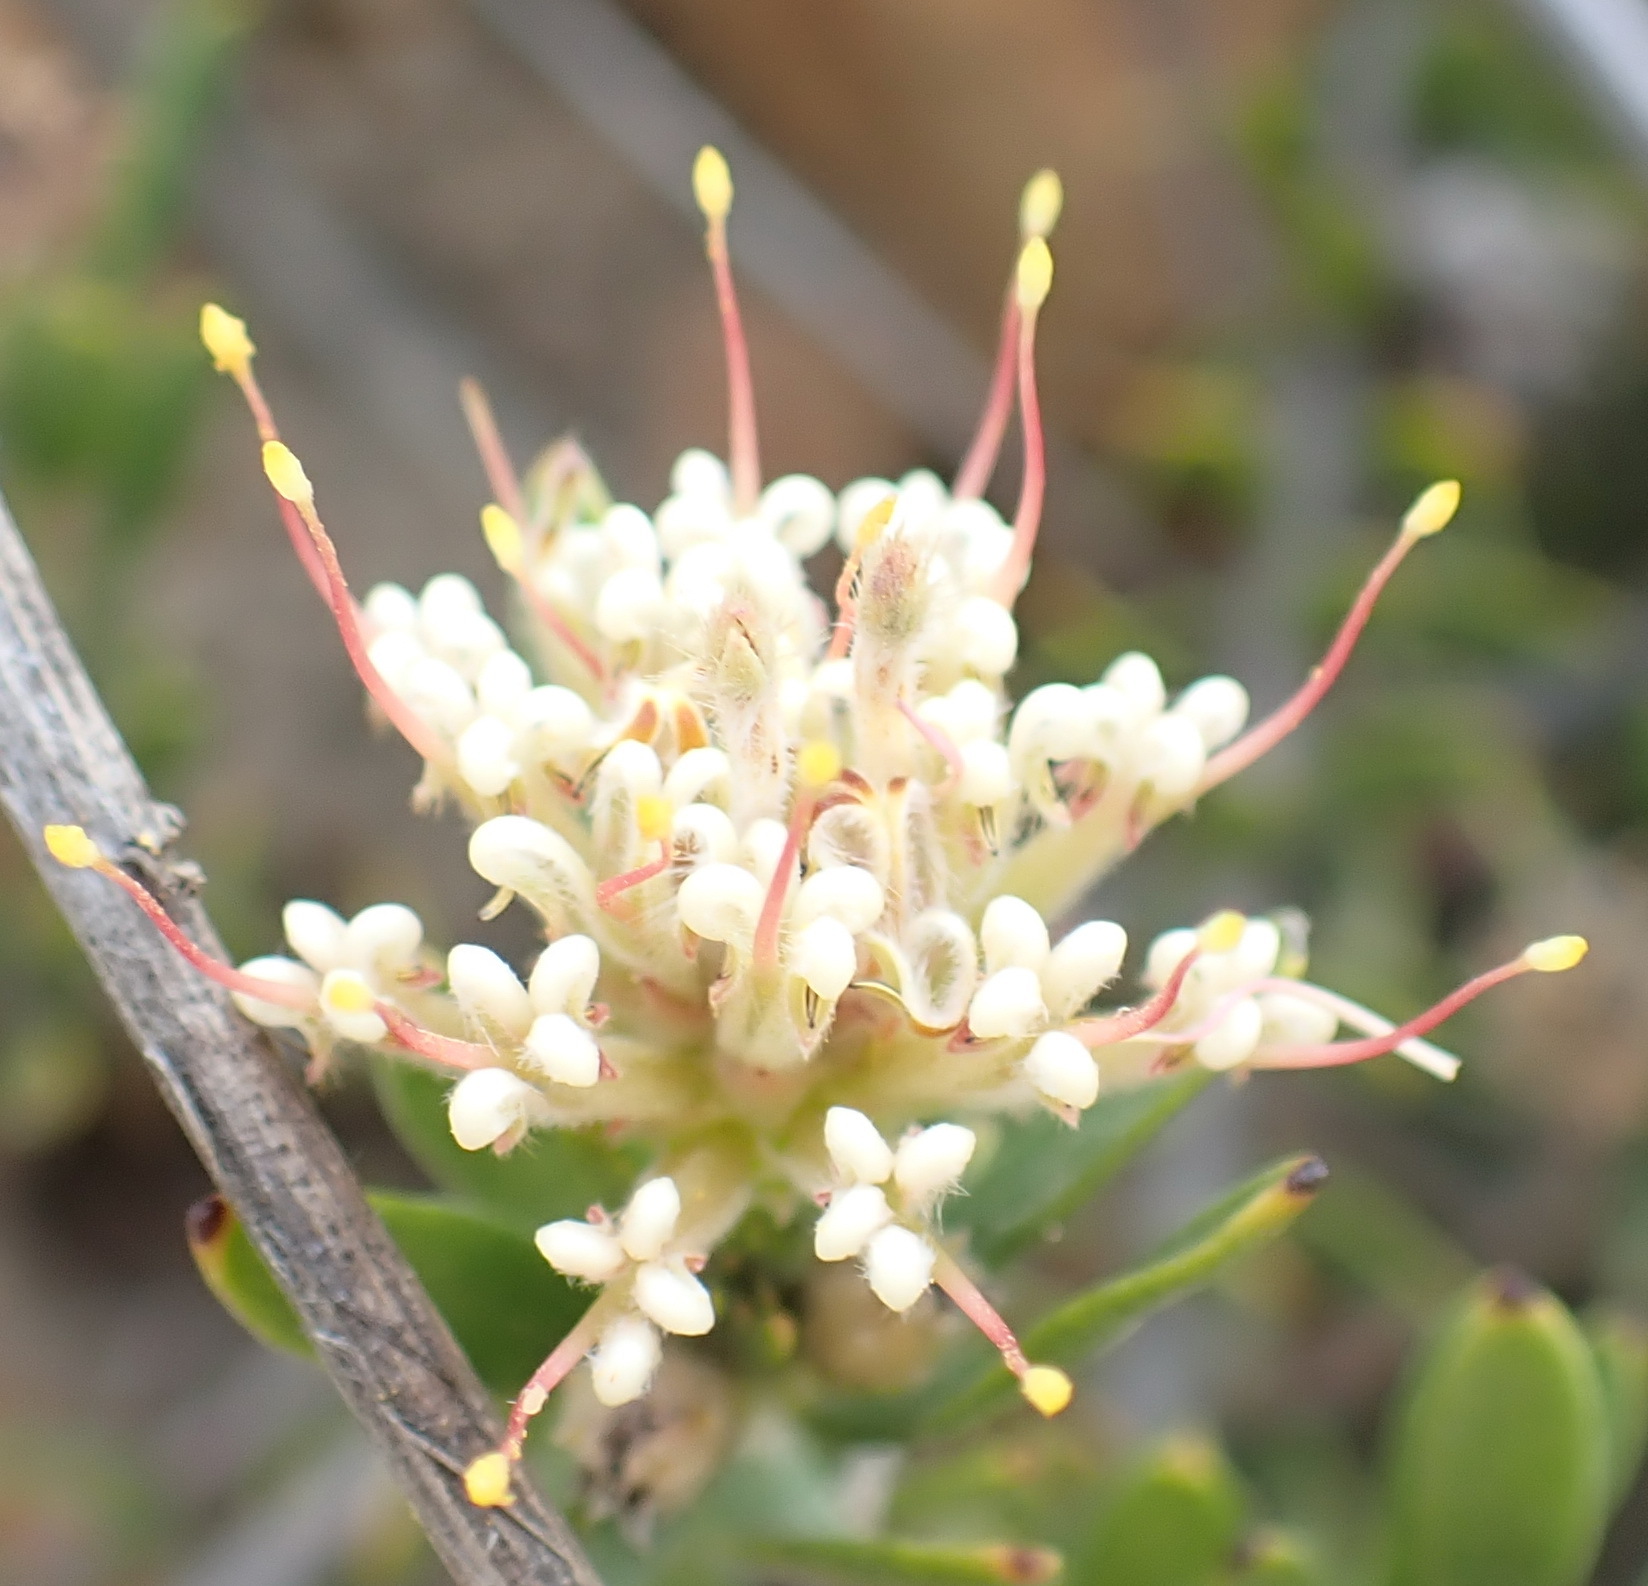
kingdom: Plantae
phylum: Tracheophyta
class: Magnoliopsida
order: Proteales
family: Proteaceae
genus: Leucospermum
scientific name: Leucospermum royenifolium
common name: Eastern pincushion
